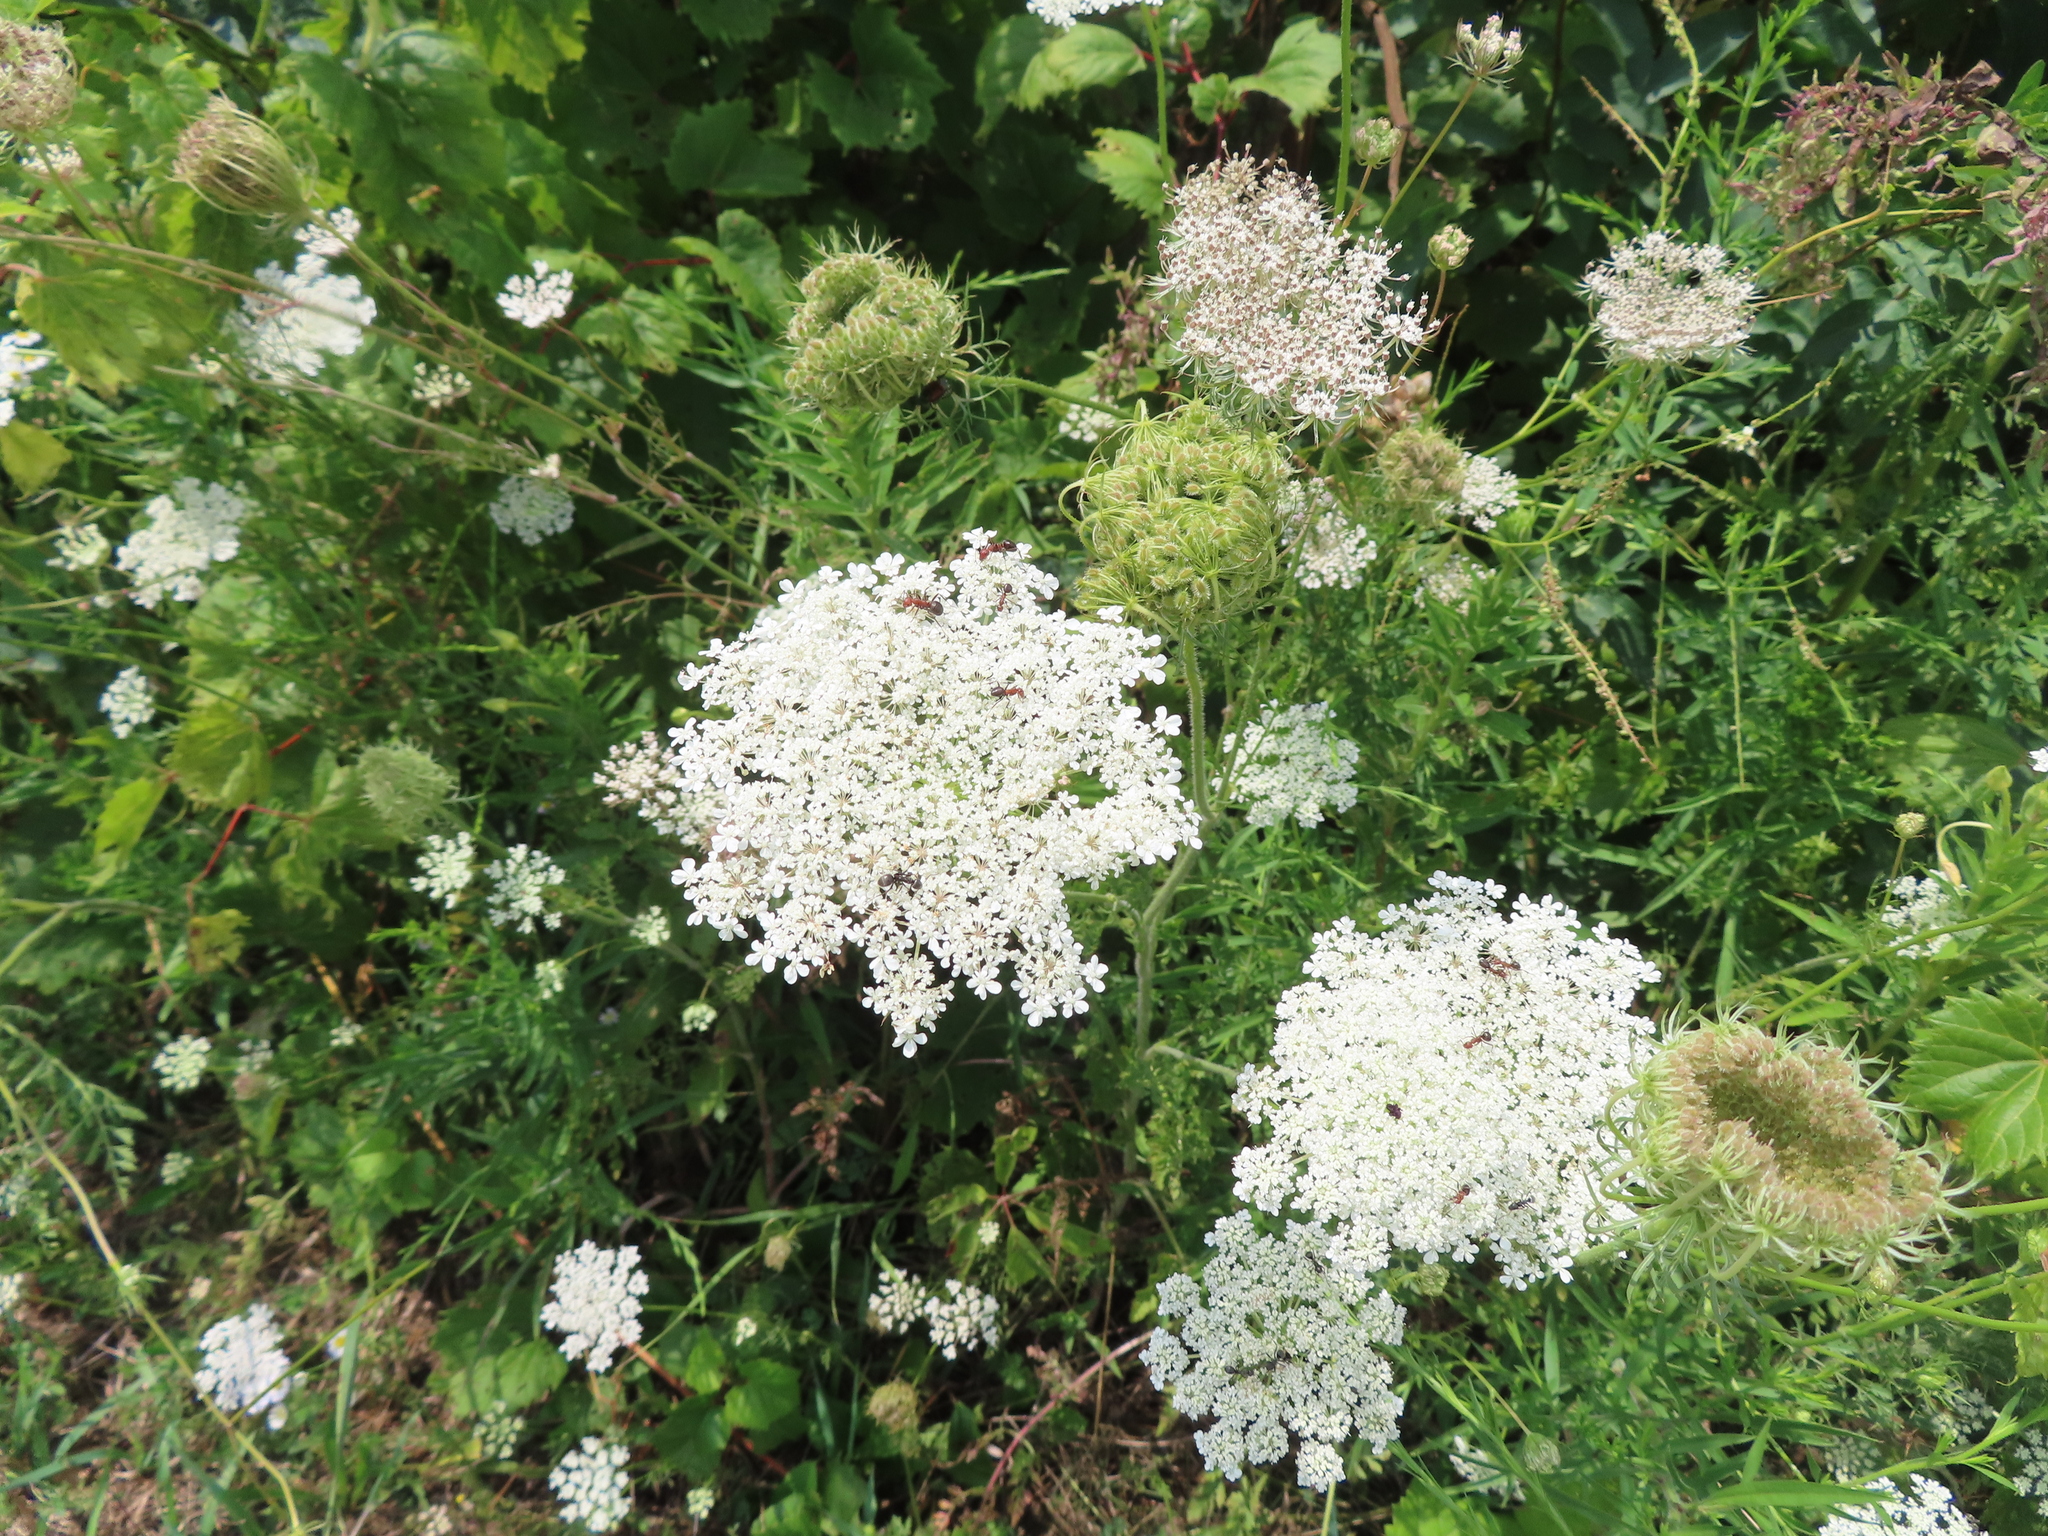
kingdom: Plantae
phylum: Tracheophyta
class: Magnoliopsida
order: Apiales
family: Apiaceae
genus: Daucus
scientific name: Daucus carota
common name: Wild carrot
